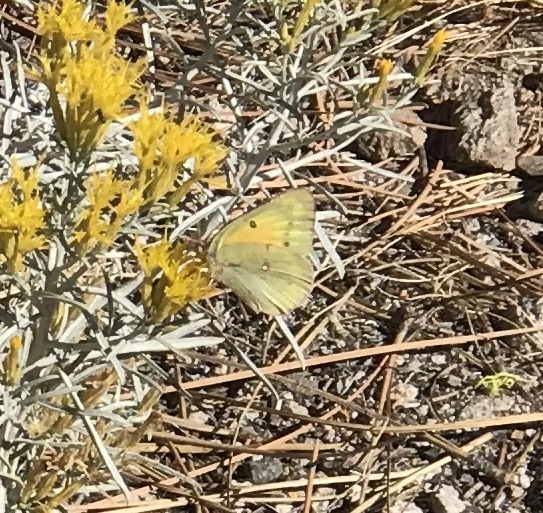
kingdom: Animalia
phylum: Arthropoda
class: Insecta
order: Lepidoptera
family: Pieridae
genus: Colias
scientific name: Colias eurytheme
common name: Alfalfa butterfly
